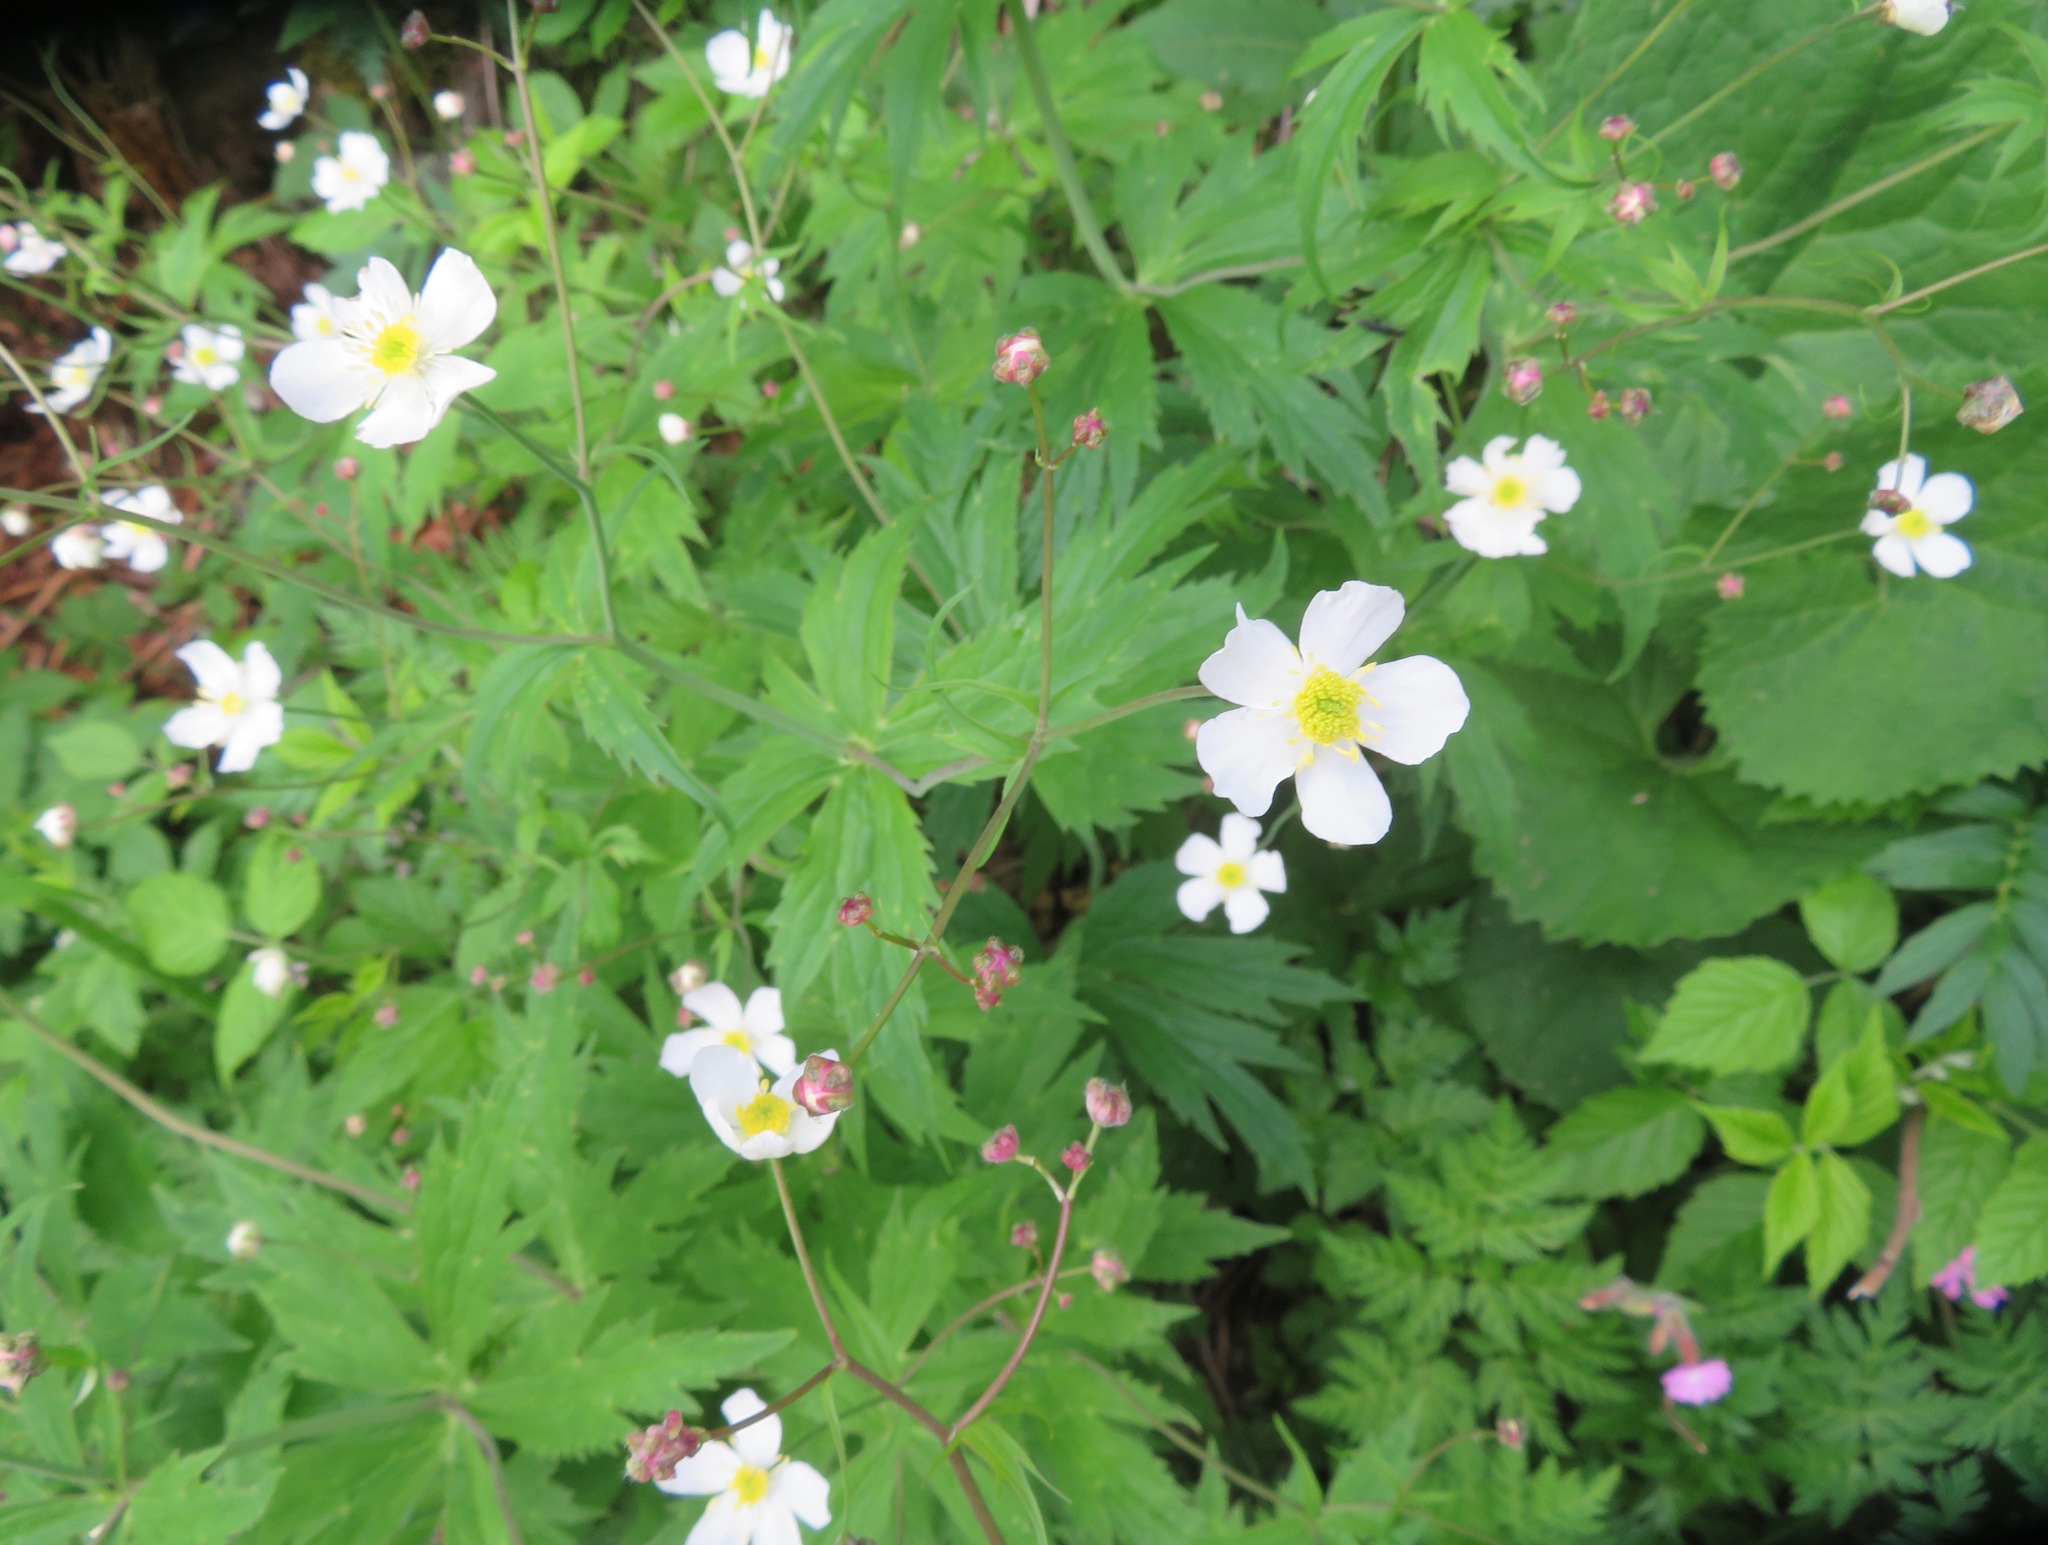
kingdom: Plantae
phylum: Tracheophyta
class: Magnoliopsida
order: Ranunculales
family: Ranunculaceae
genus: Ranunculus
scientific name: Ranunculus platanifolius
